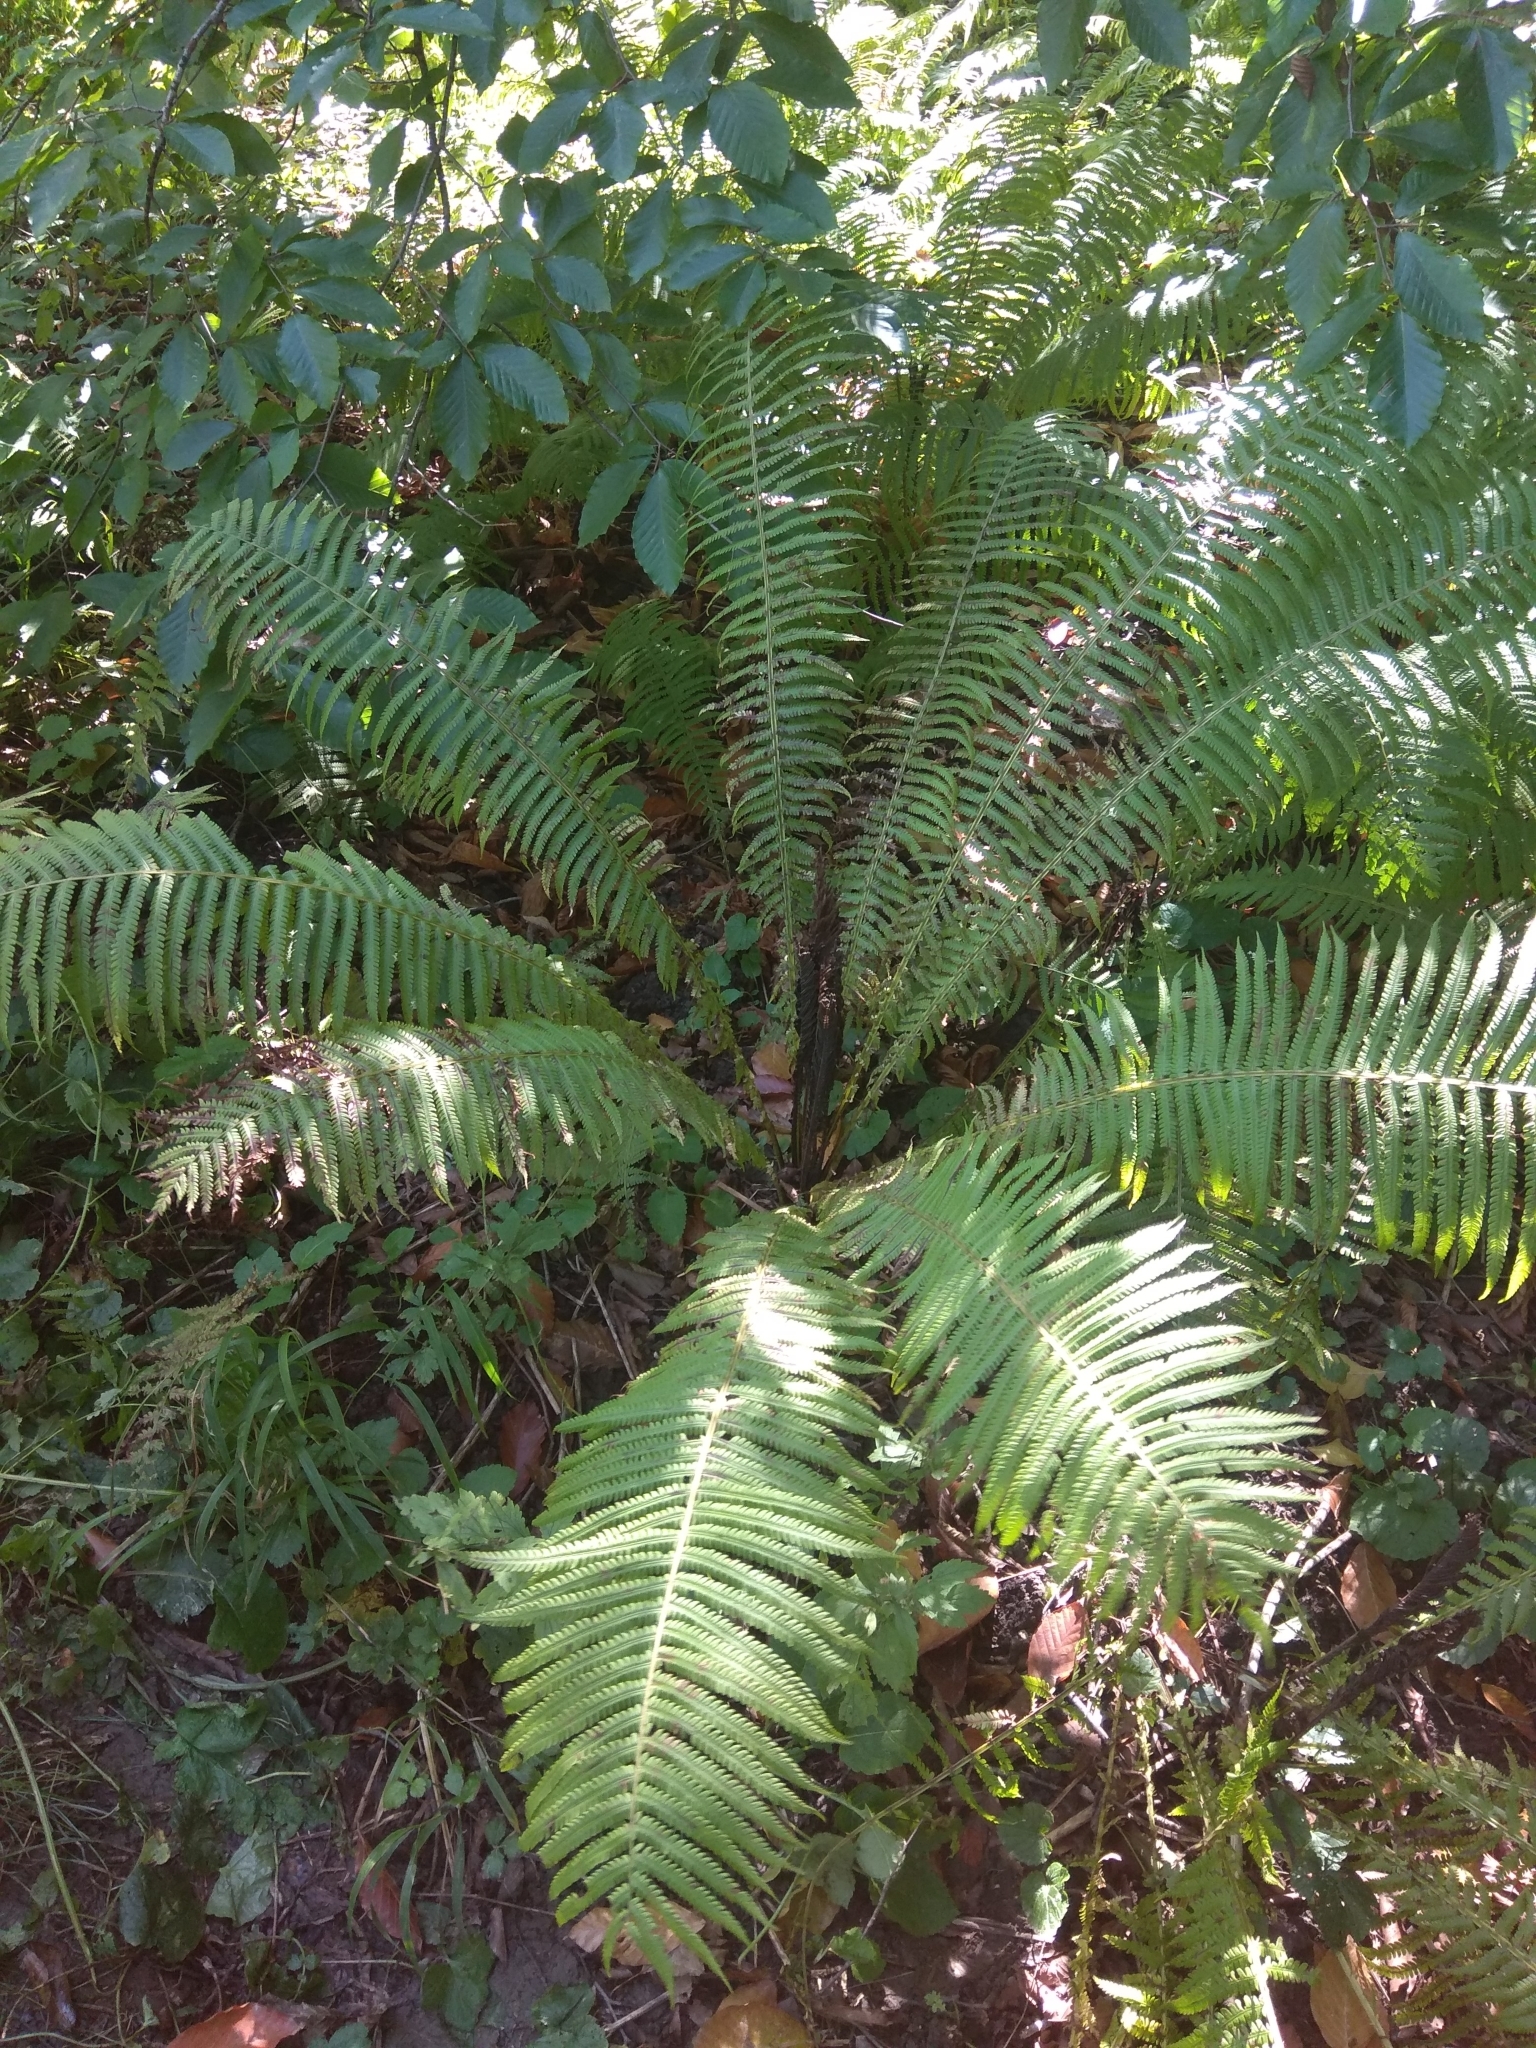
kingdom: Plantae
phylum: Tracheophyta
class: Polypodiopsida
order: Polypodiales
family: Onocleaceae
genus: Matteuccia
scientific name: Matteuccia struthiopteris
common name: Ostrich fern
